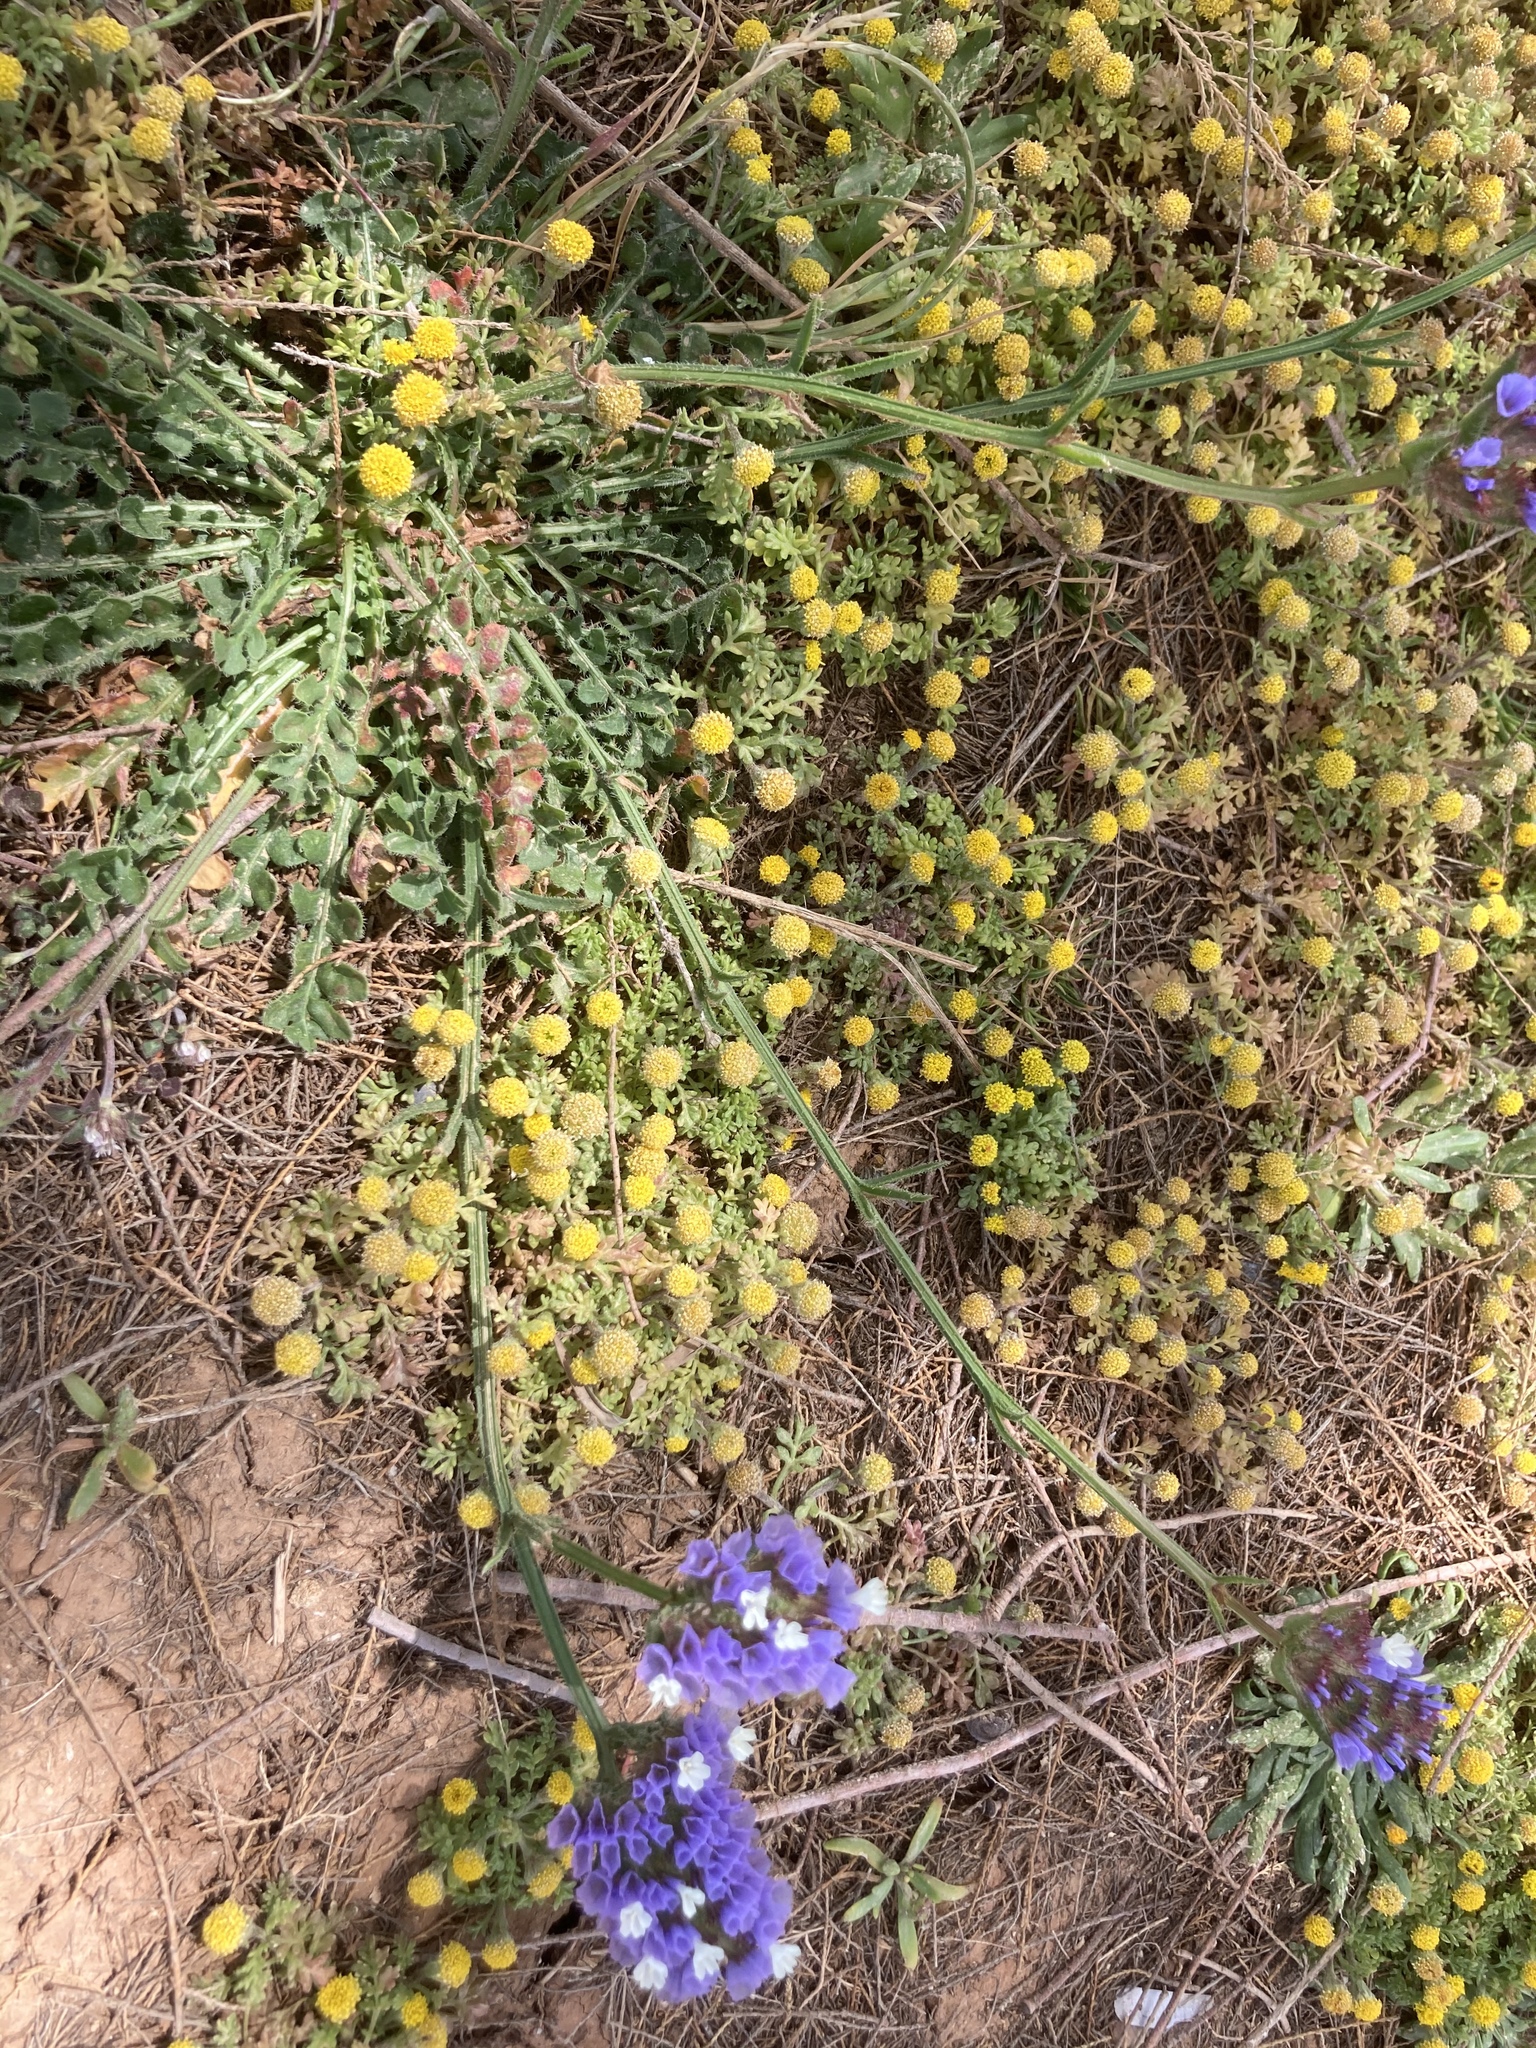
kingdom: Plantae
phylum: Tracheophyta
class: Magnoliopsida
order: Asterales
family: Asteraceae
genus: Anthemis
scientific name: Anthemis rigida
